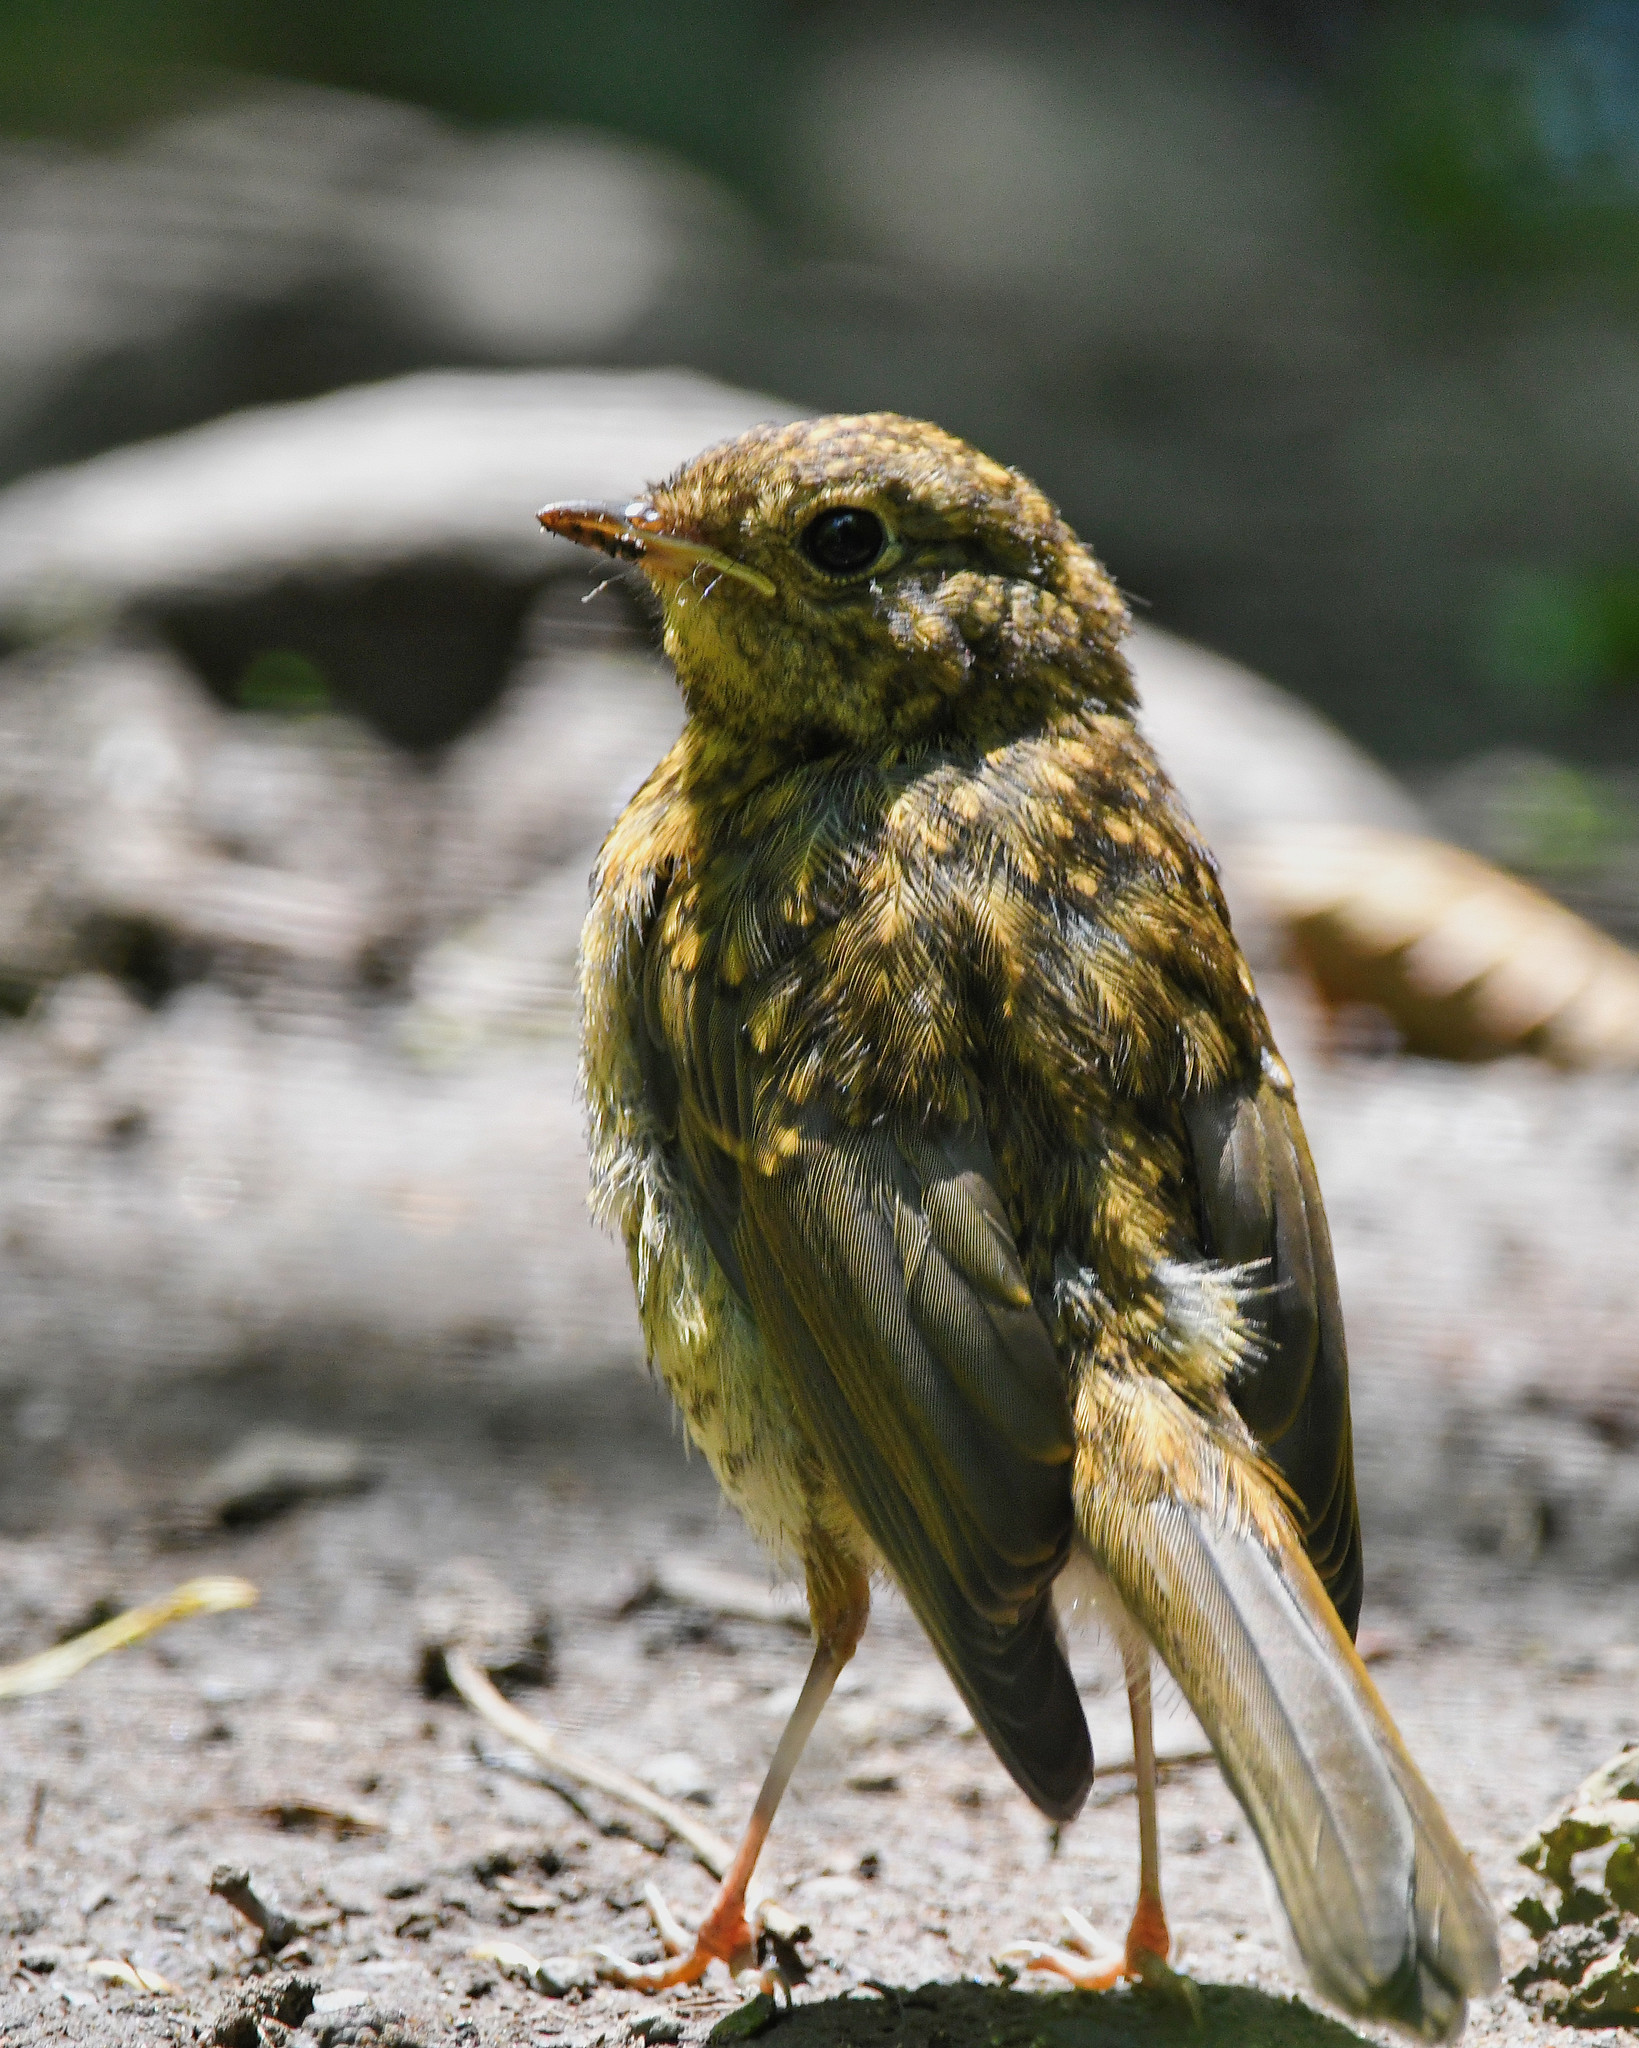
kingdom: Animalia
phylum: Chordata
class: Aves
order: Passeriformes
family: Muscicapidae
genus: Erithacus
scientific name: Erithacus rubecula
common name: European robin
